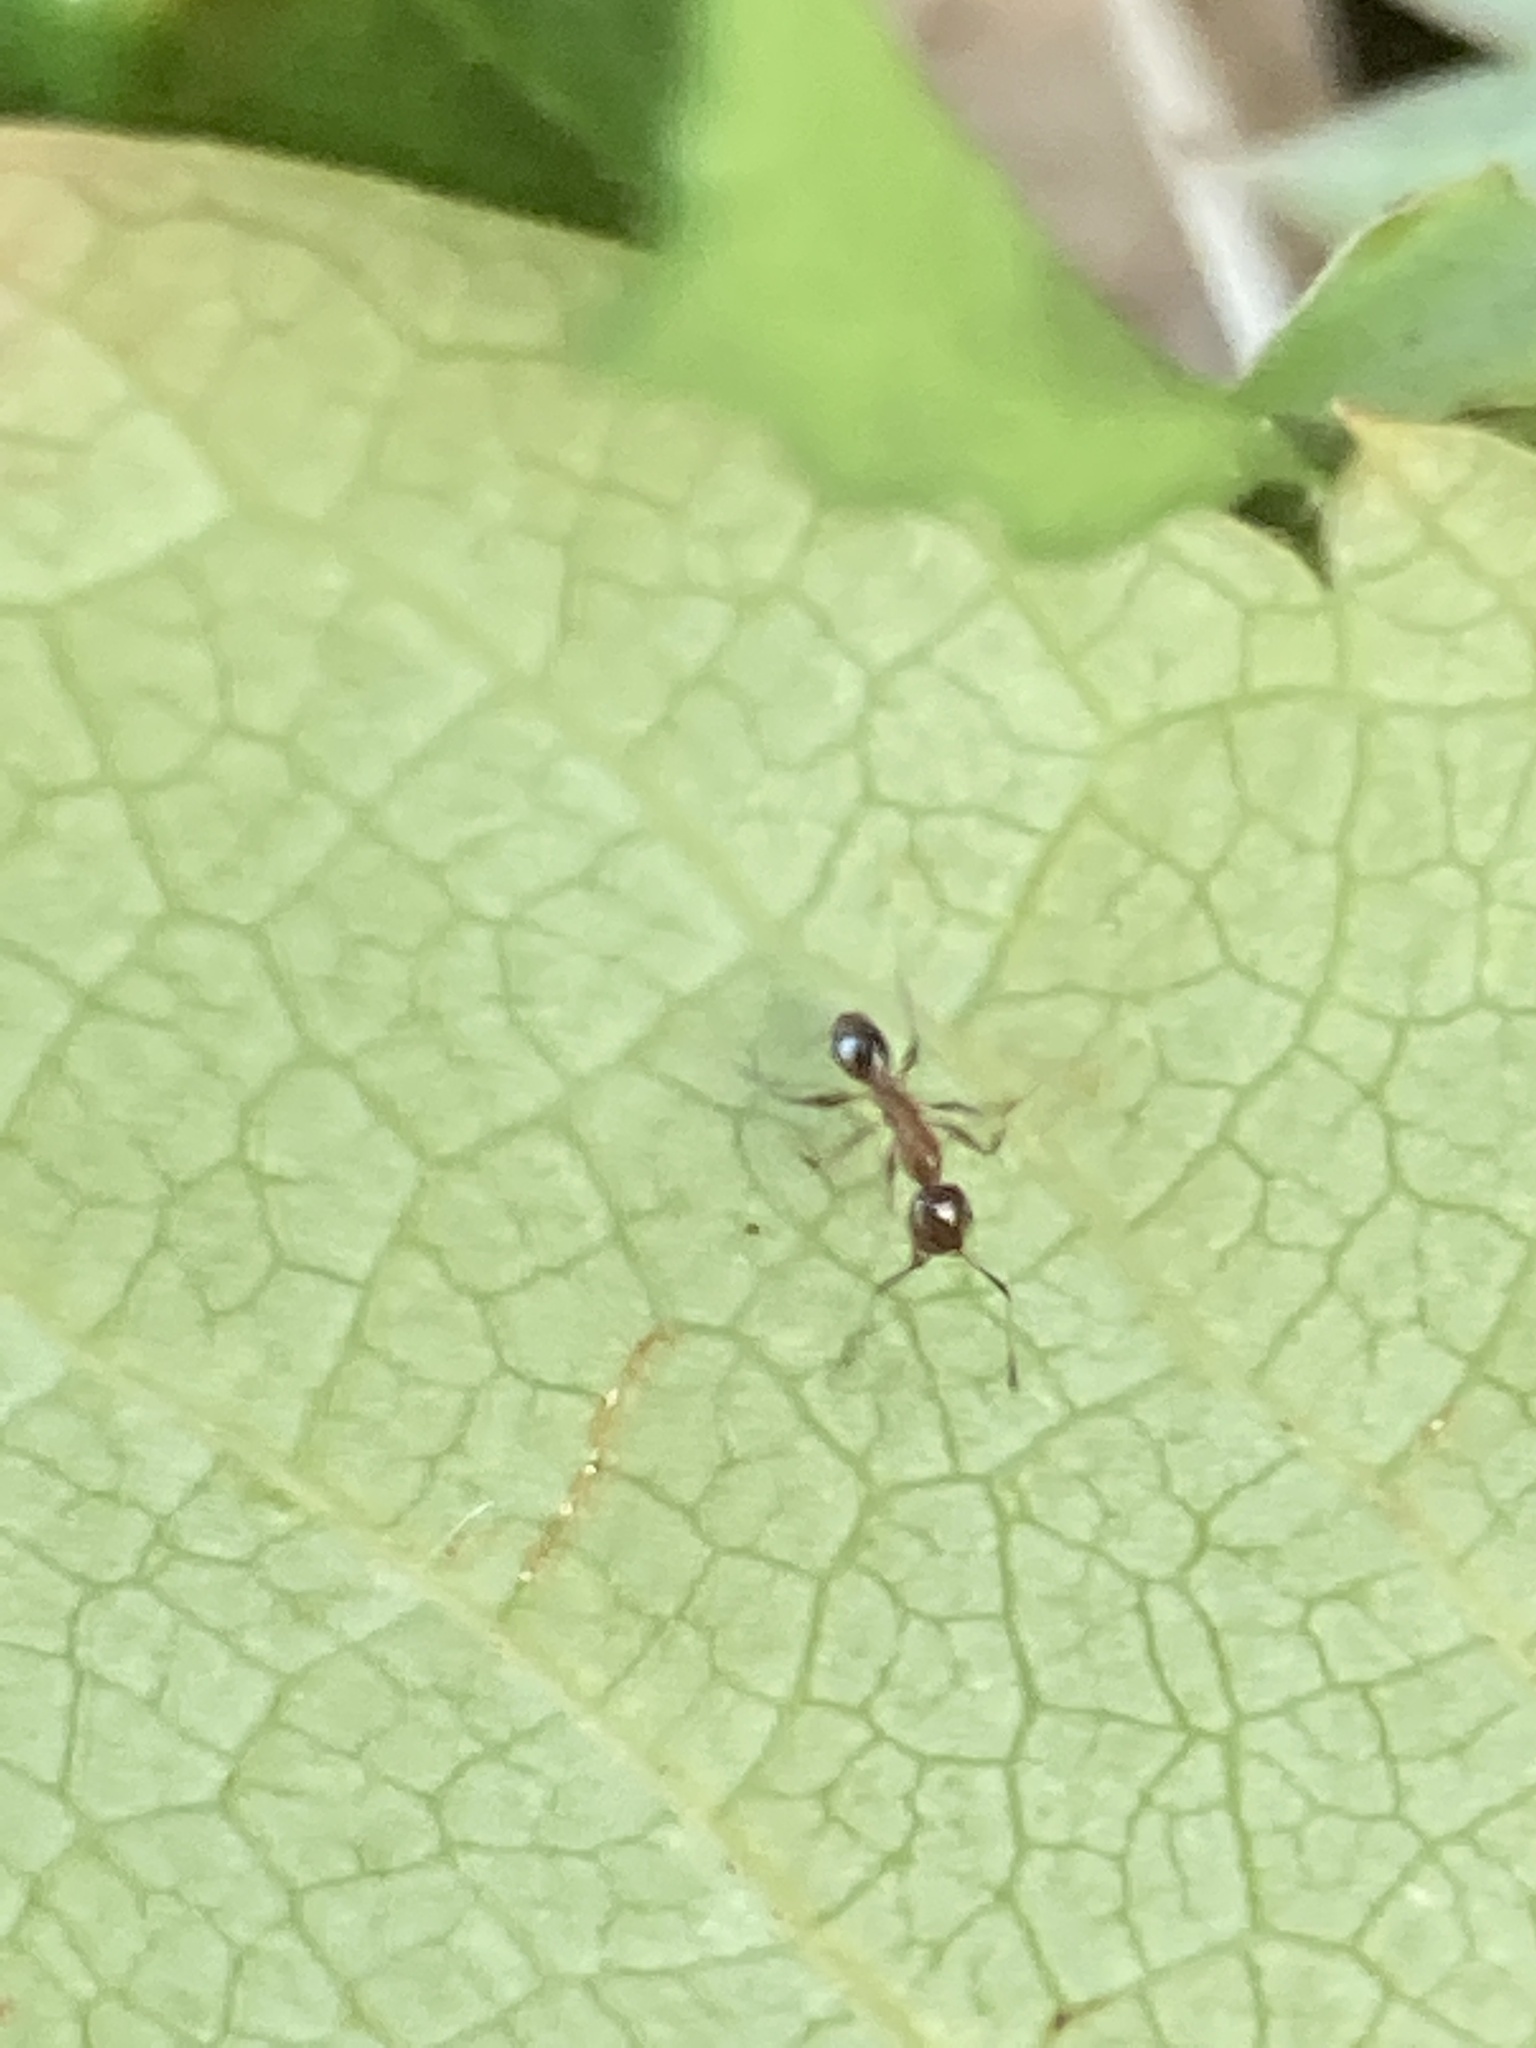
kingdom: Animalia
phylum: Arthropoda
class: Insecta
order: Hymenoptera
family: Formicidae
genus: Pheidole
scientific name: Pheidole dentata
